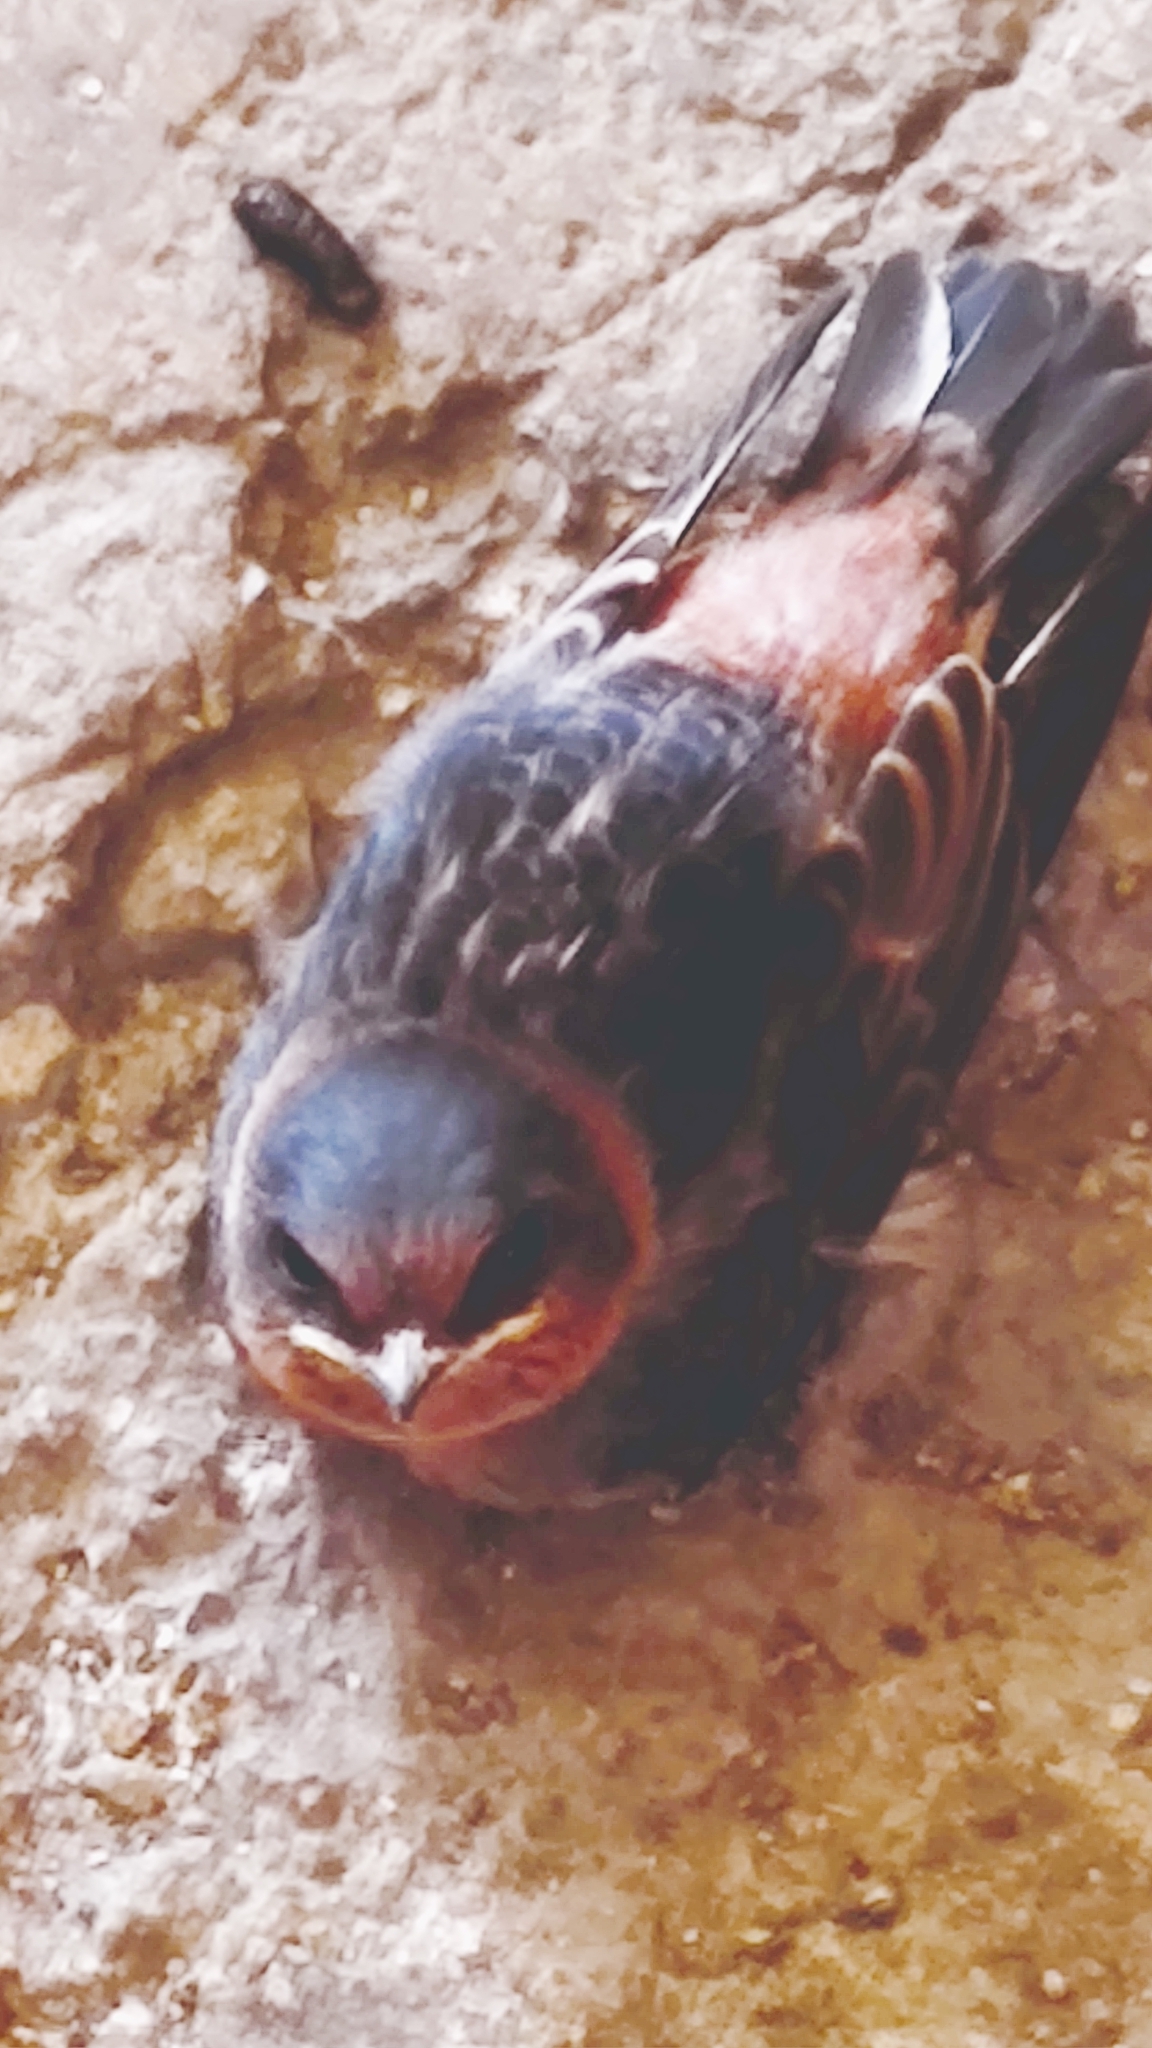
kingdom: Animalia
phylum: Chordata
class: Aves
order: Passeriformes
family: Hirundinidae
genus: Petrochelidon
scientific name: Petrochelidon fulva
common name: Cave swallow
